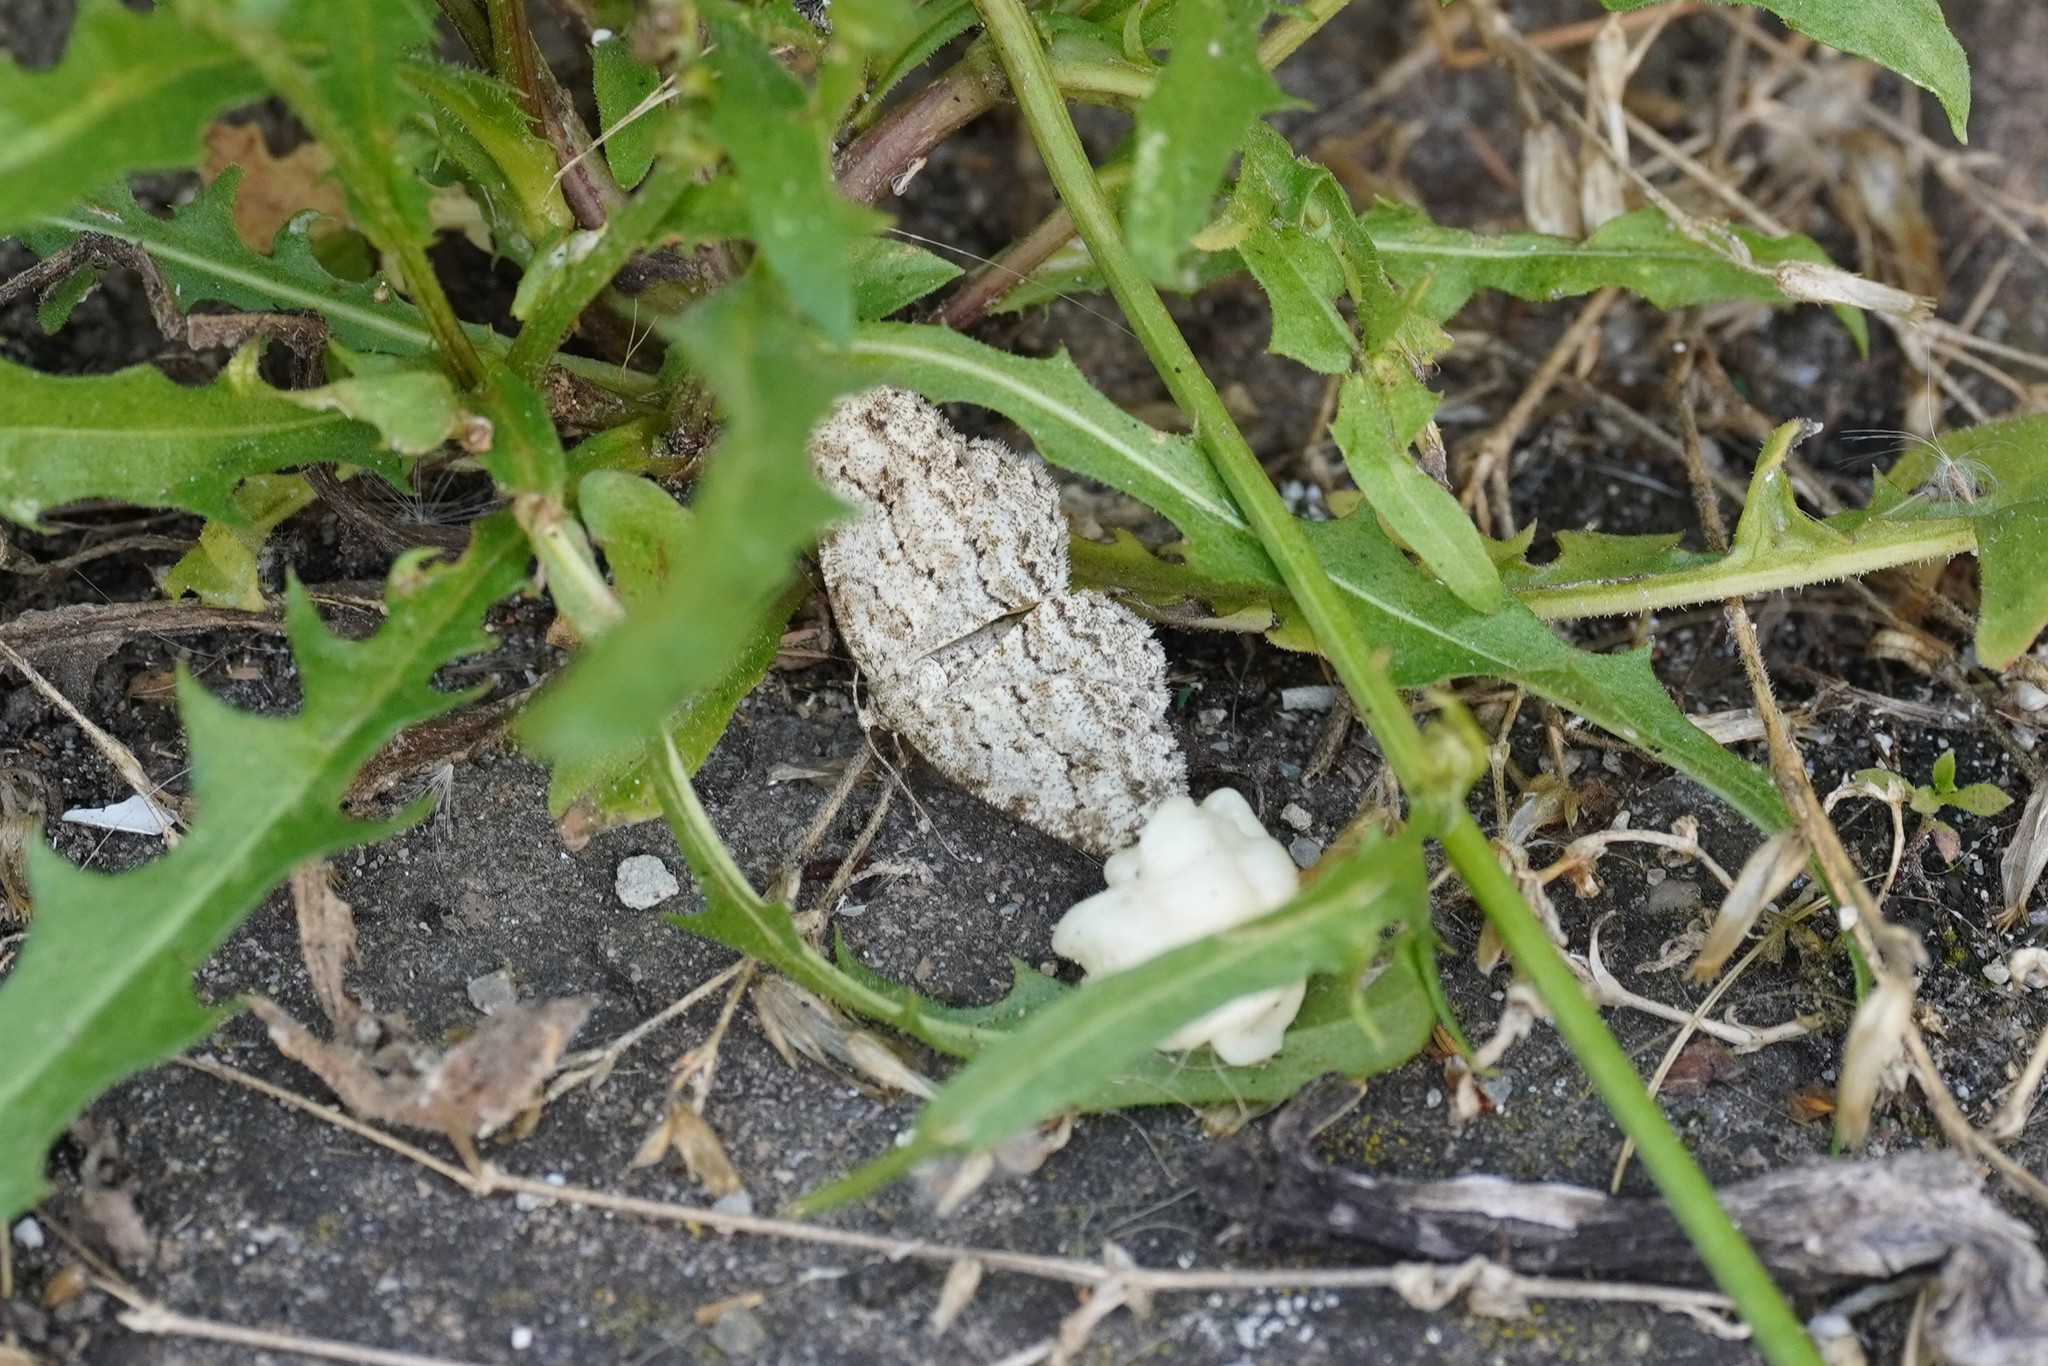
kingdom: Animalia
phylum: Arthropoda
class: Insecta
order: Lepidoptera
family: Geometridae
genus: Ectropis
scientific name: Ectropis crepuscularia
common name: Engrailed
